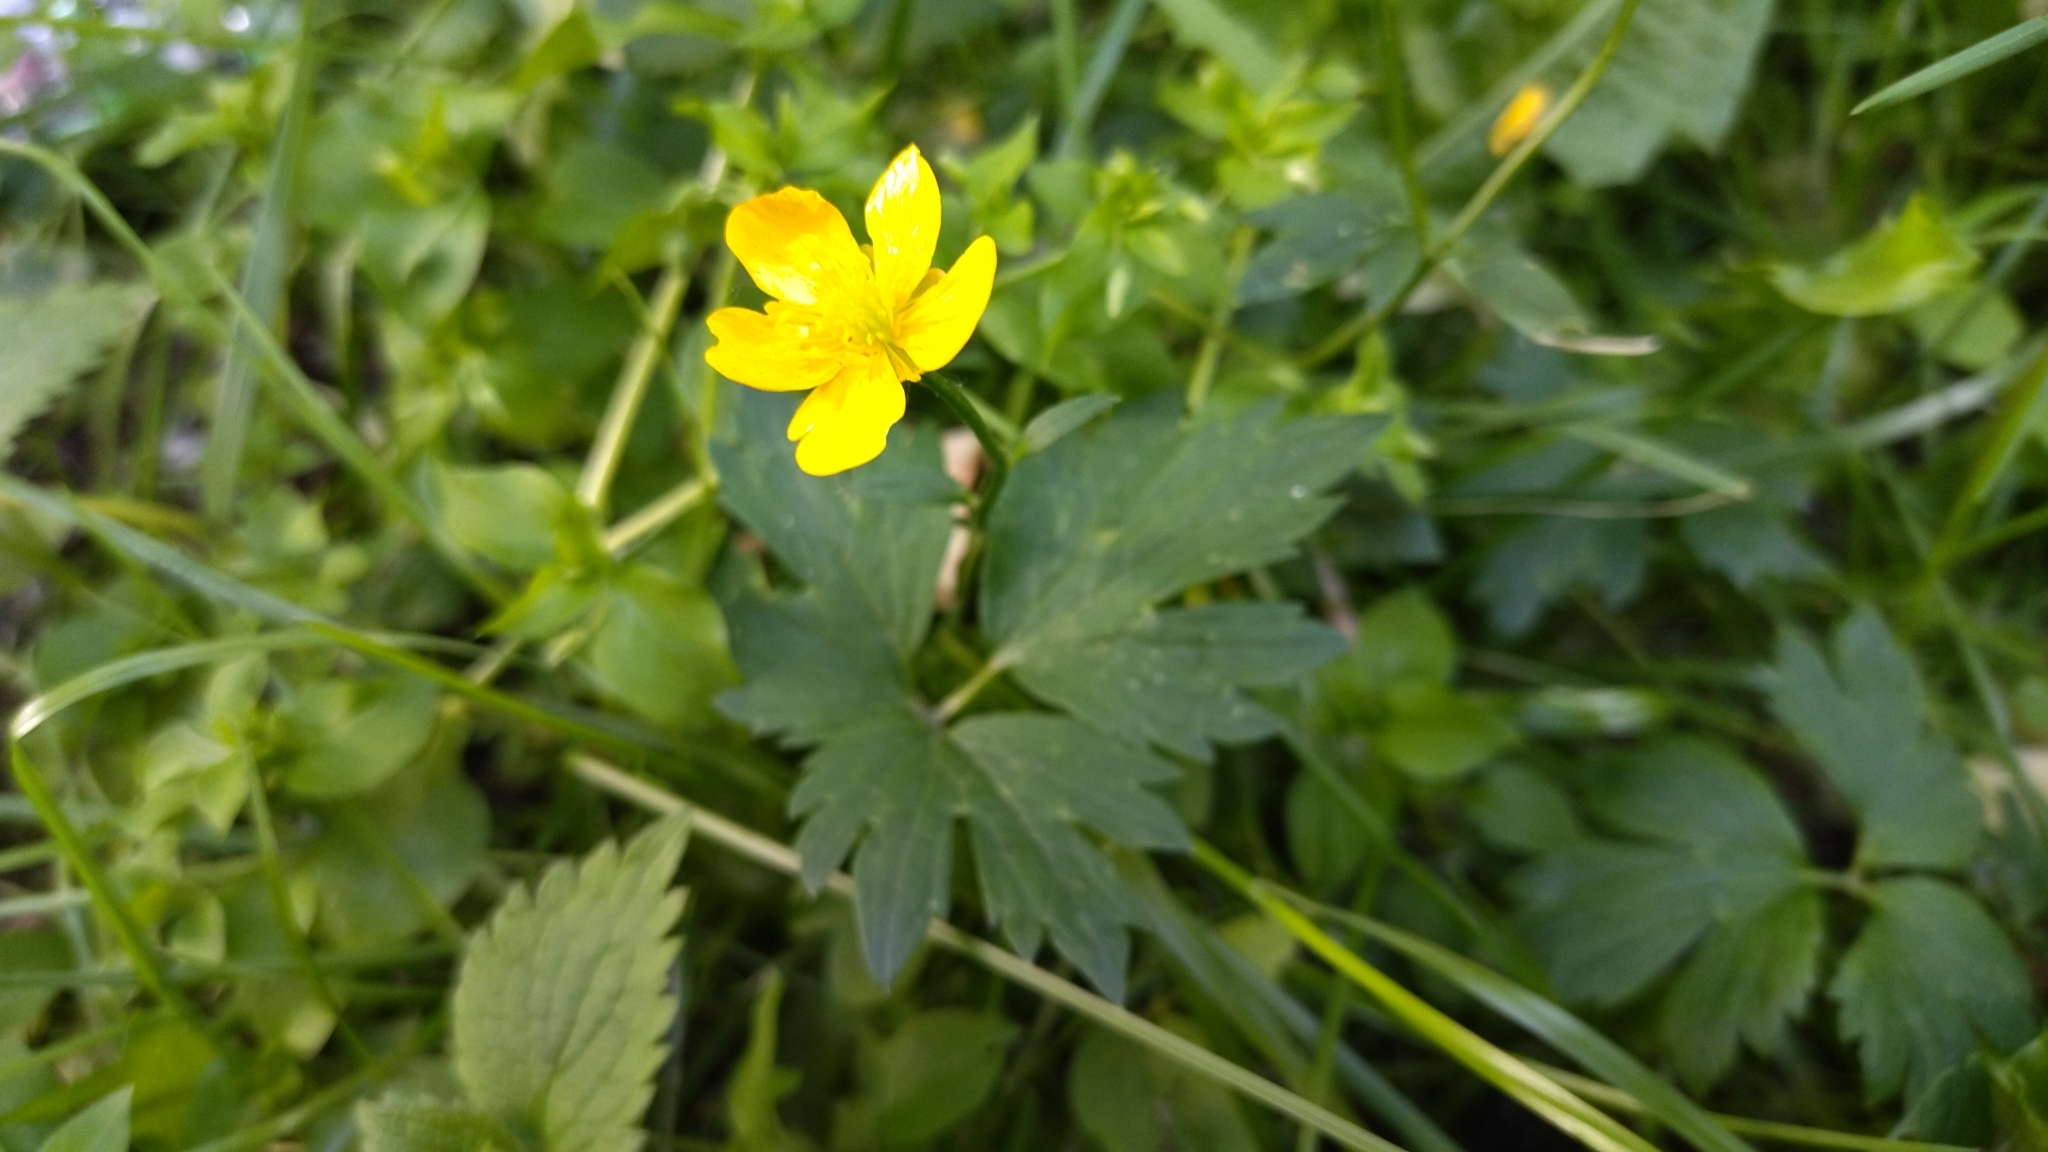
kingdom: Plantae
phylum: Tracheophyta
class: Magnoliopsida
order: Ranunculales
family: Ranunculaceae
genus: Ranunculus
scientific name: Ranunculus repens
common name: Creeping buttercup
